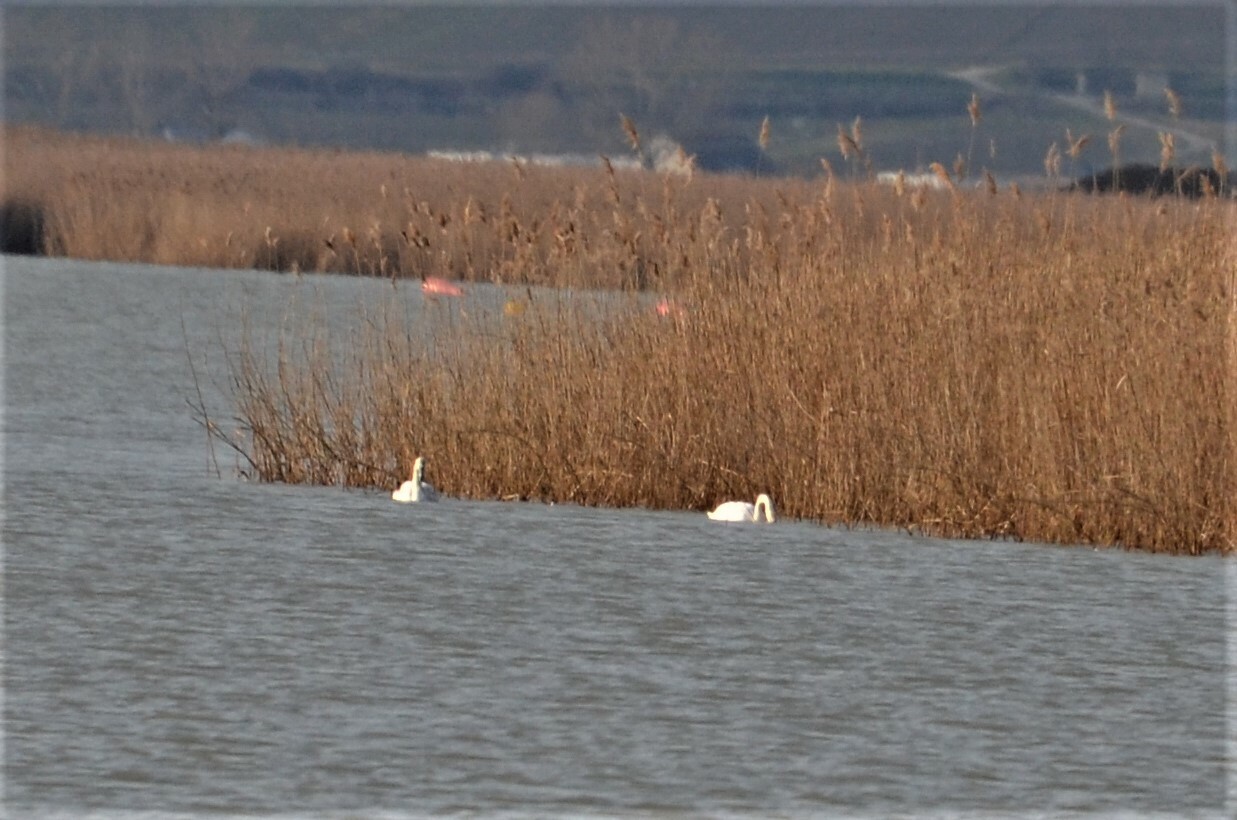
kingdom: Animalia
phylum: Chordata
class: Aves
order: Anseriformes
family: Anatidae
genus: Cygnus
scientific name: Cygnus olor
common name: Mute swan
